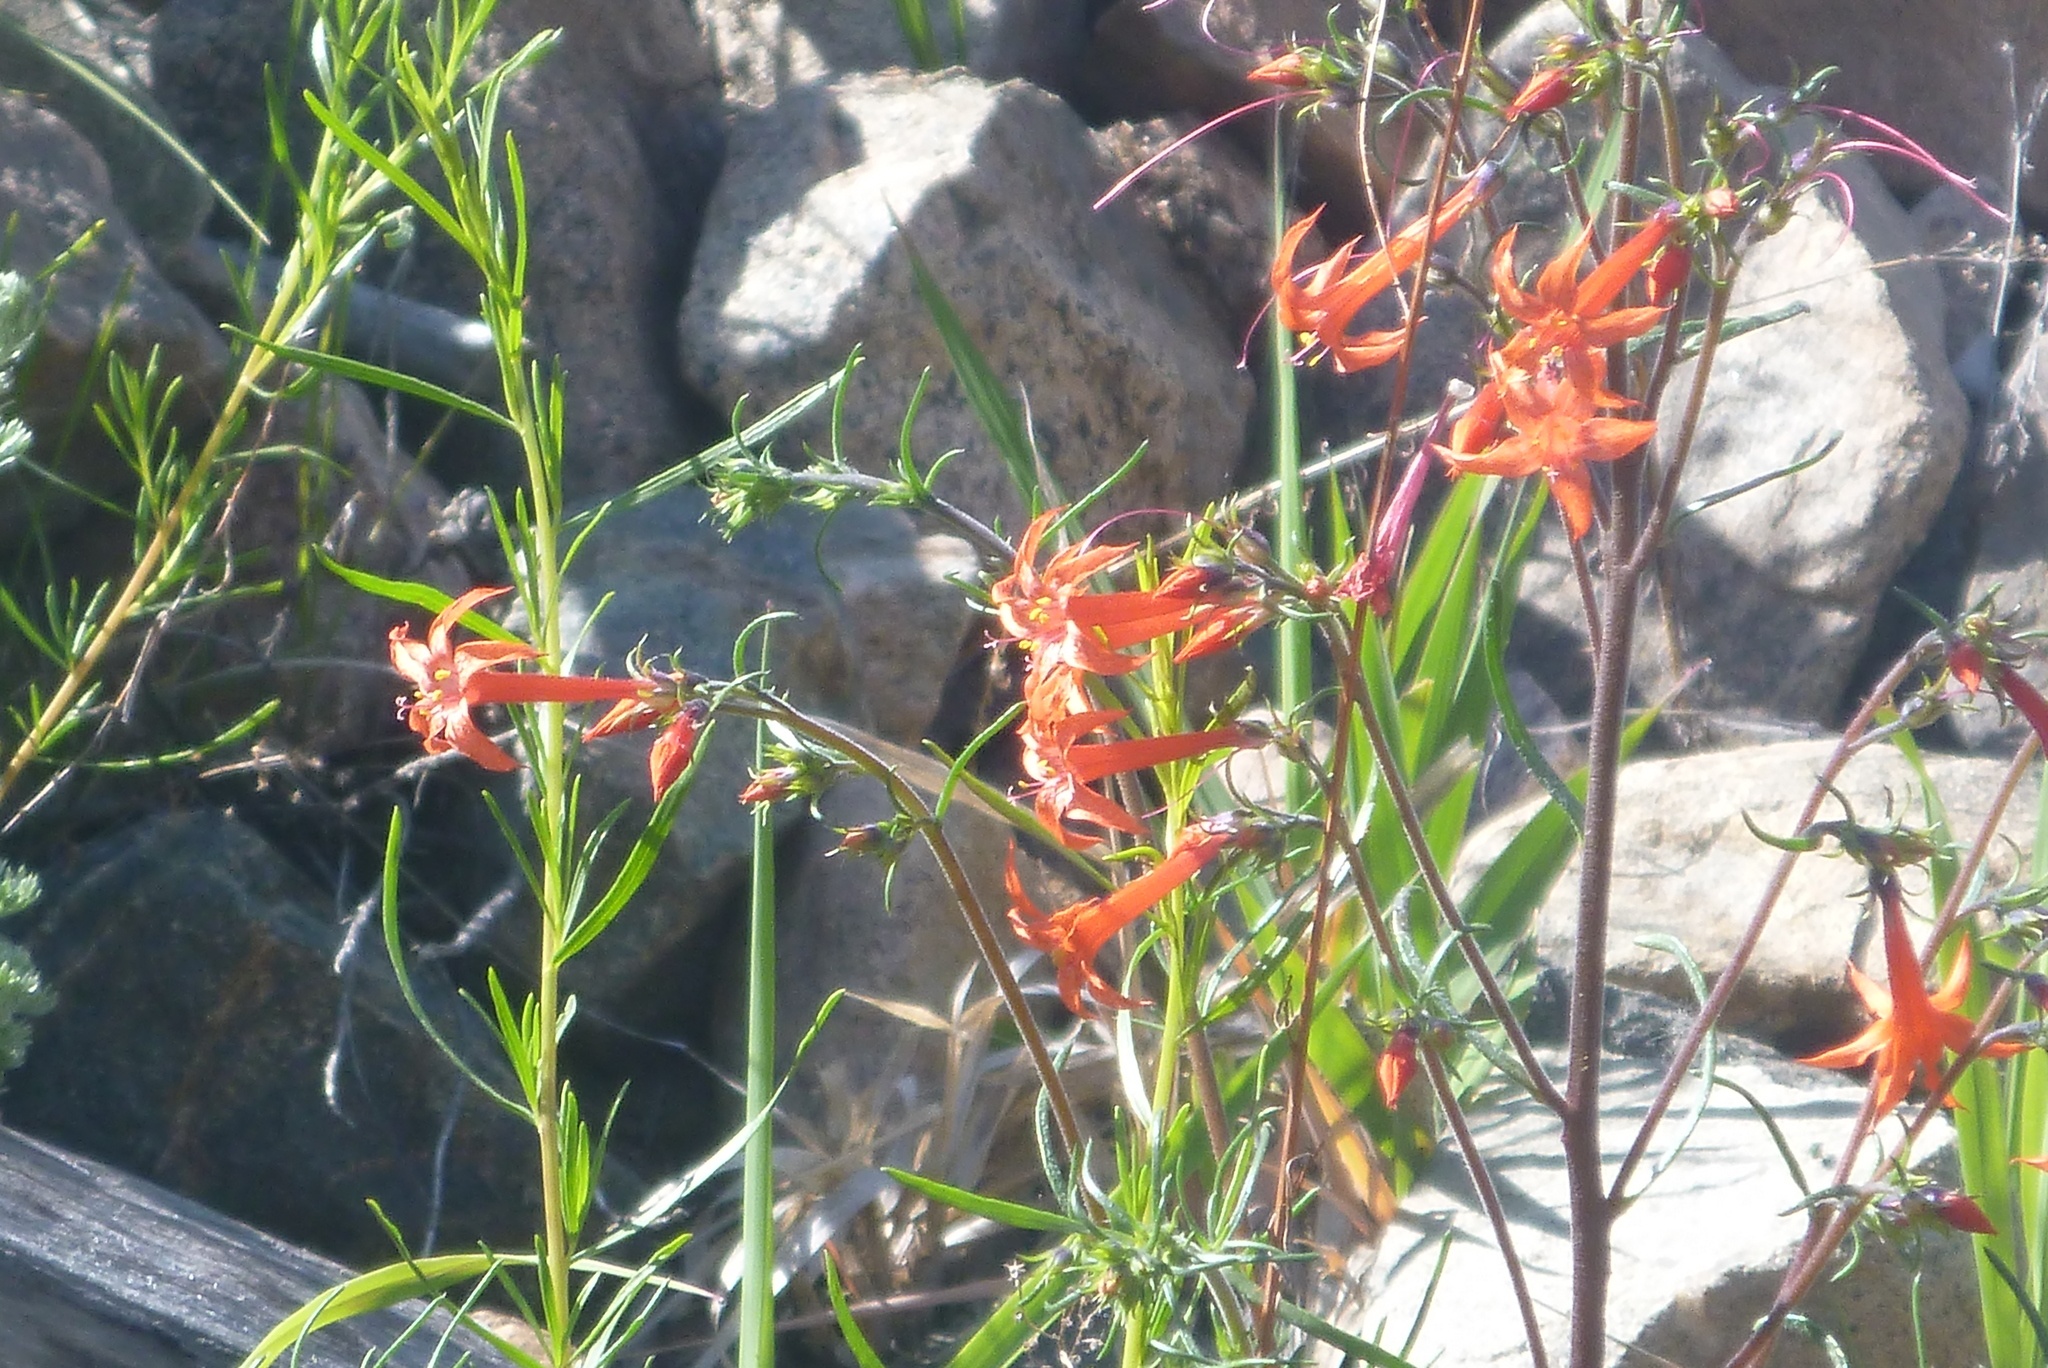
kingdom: Plantae
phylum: Tracheophyta
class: Magnoliopsida
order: Ericales
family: Polemoniaceae
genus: Ipomopsis
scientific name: Ipomopsis aggregata
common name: Scarlet gilia
